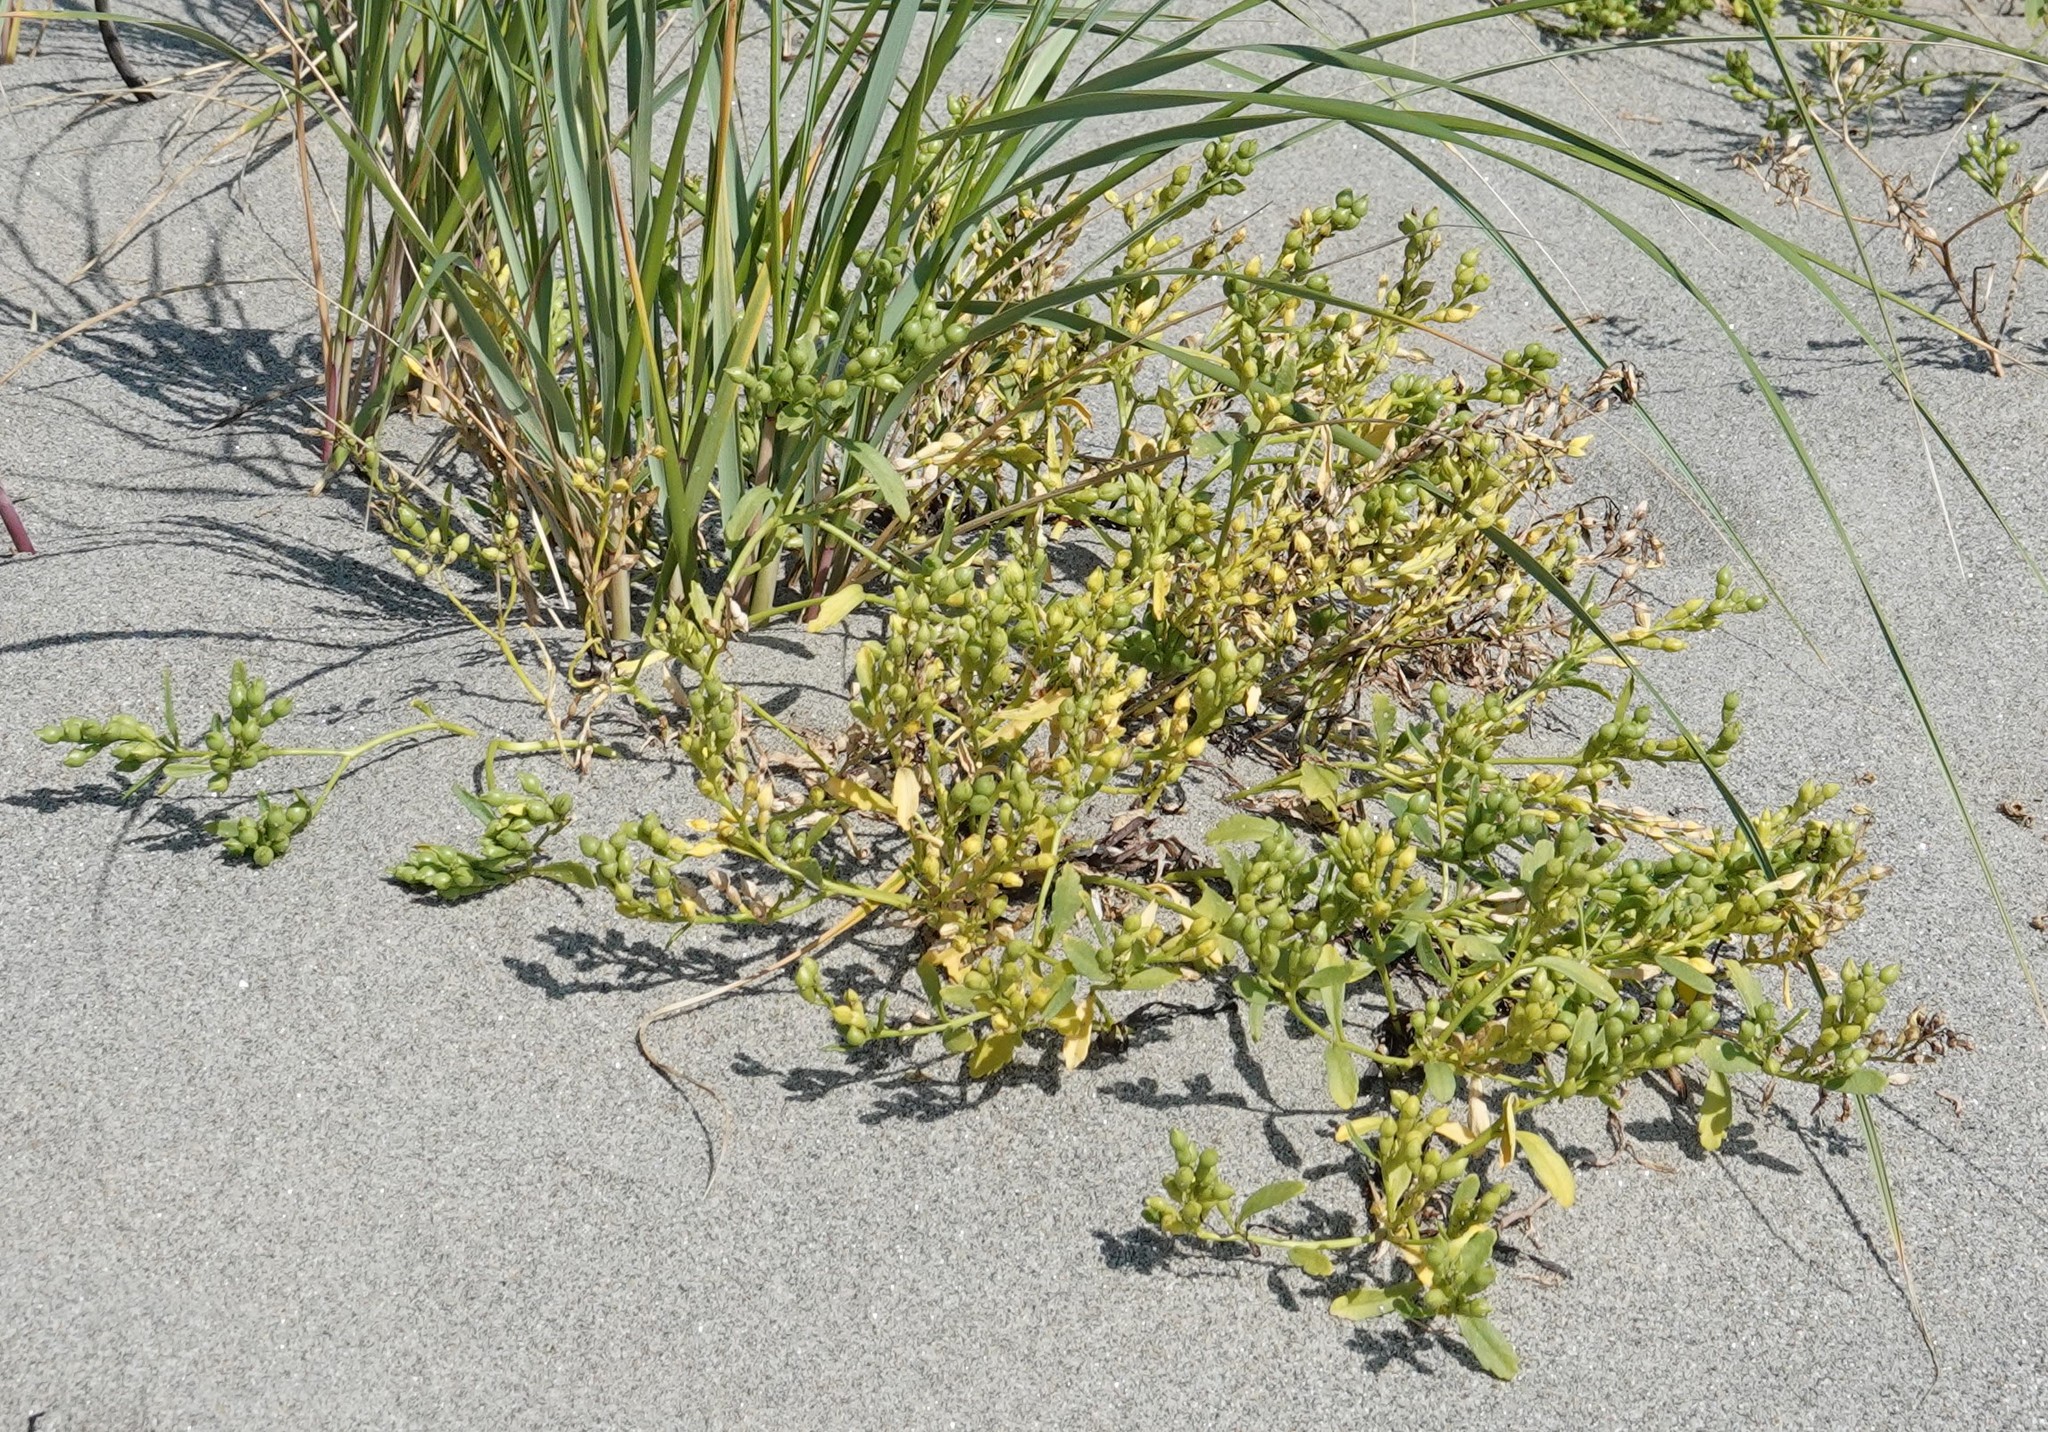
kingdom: Plantae
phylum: Tracheophyta
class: Magnoliopsida
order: Brassicales
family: Brassicaceae
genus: Cakile
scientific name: Cakile edentula
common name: American sea rocket
